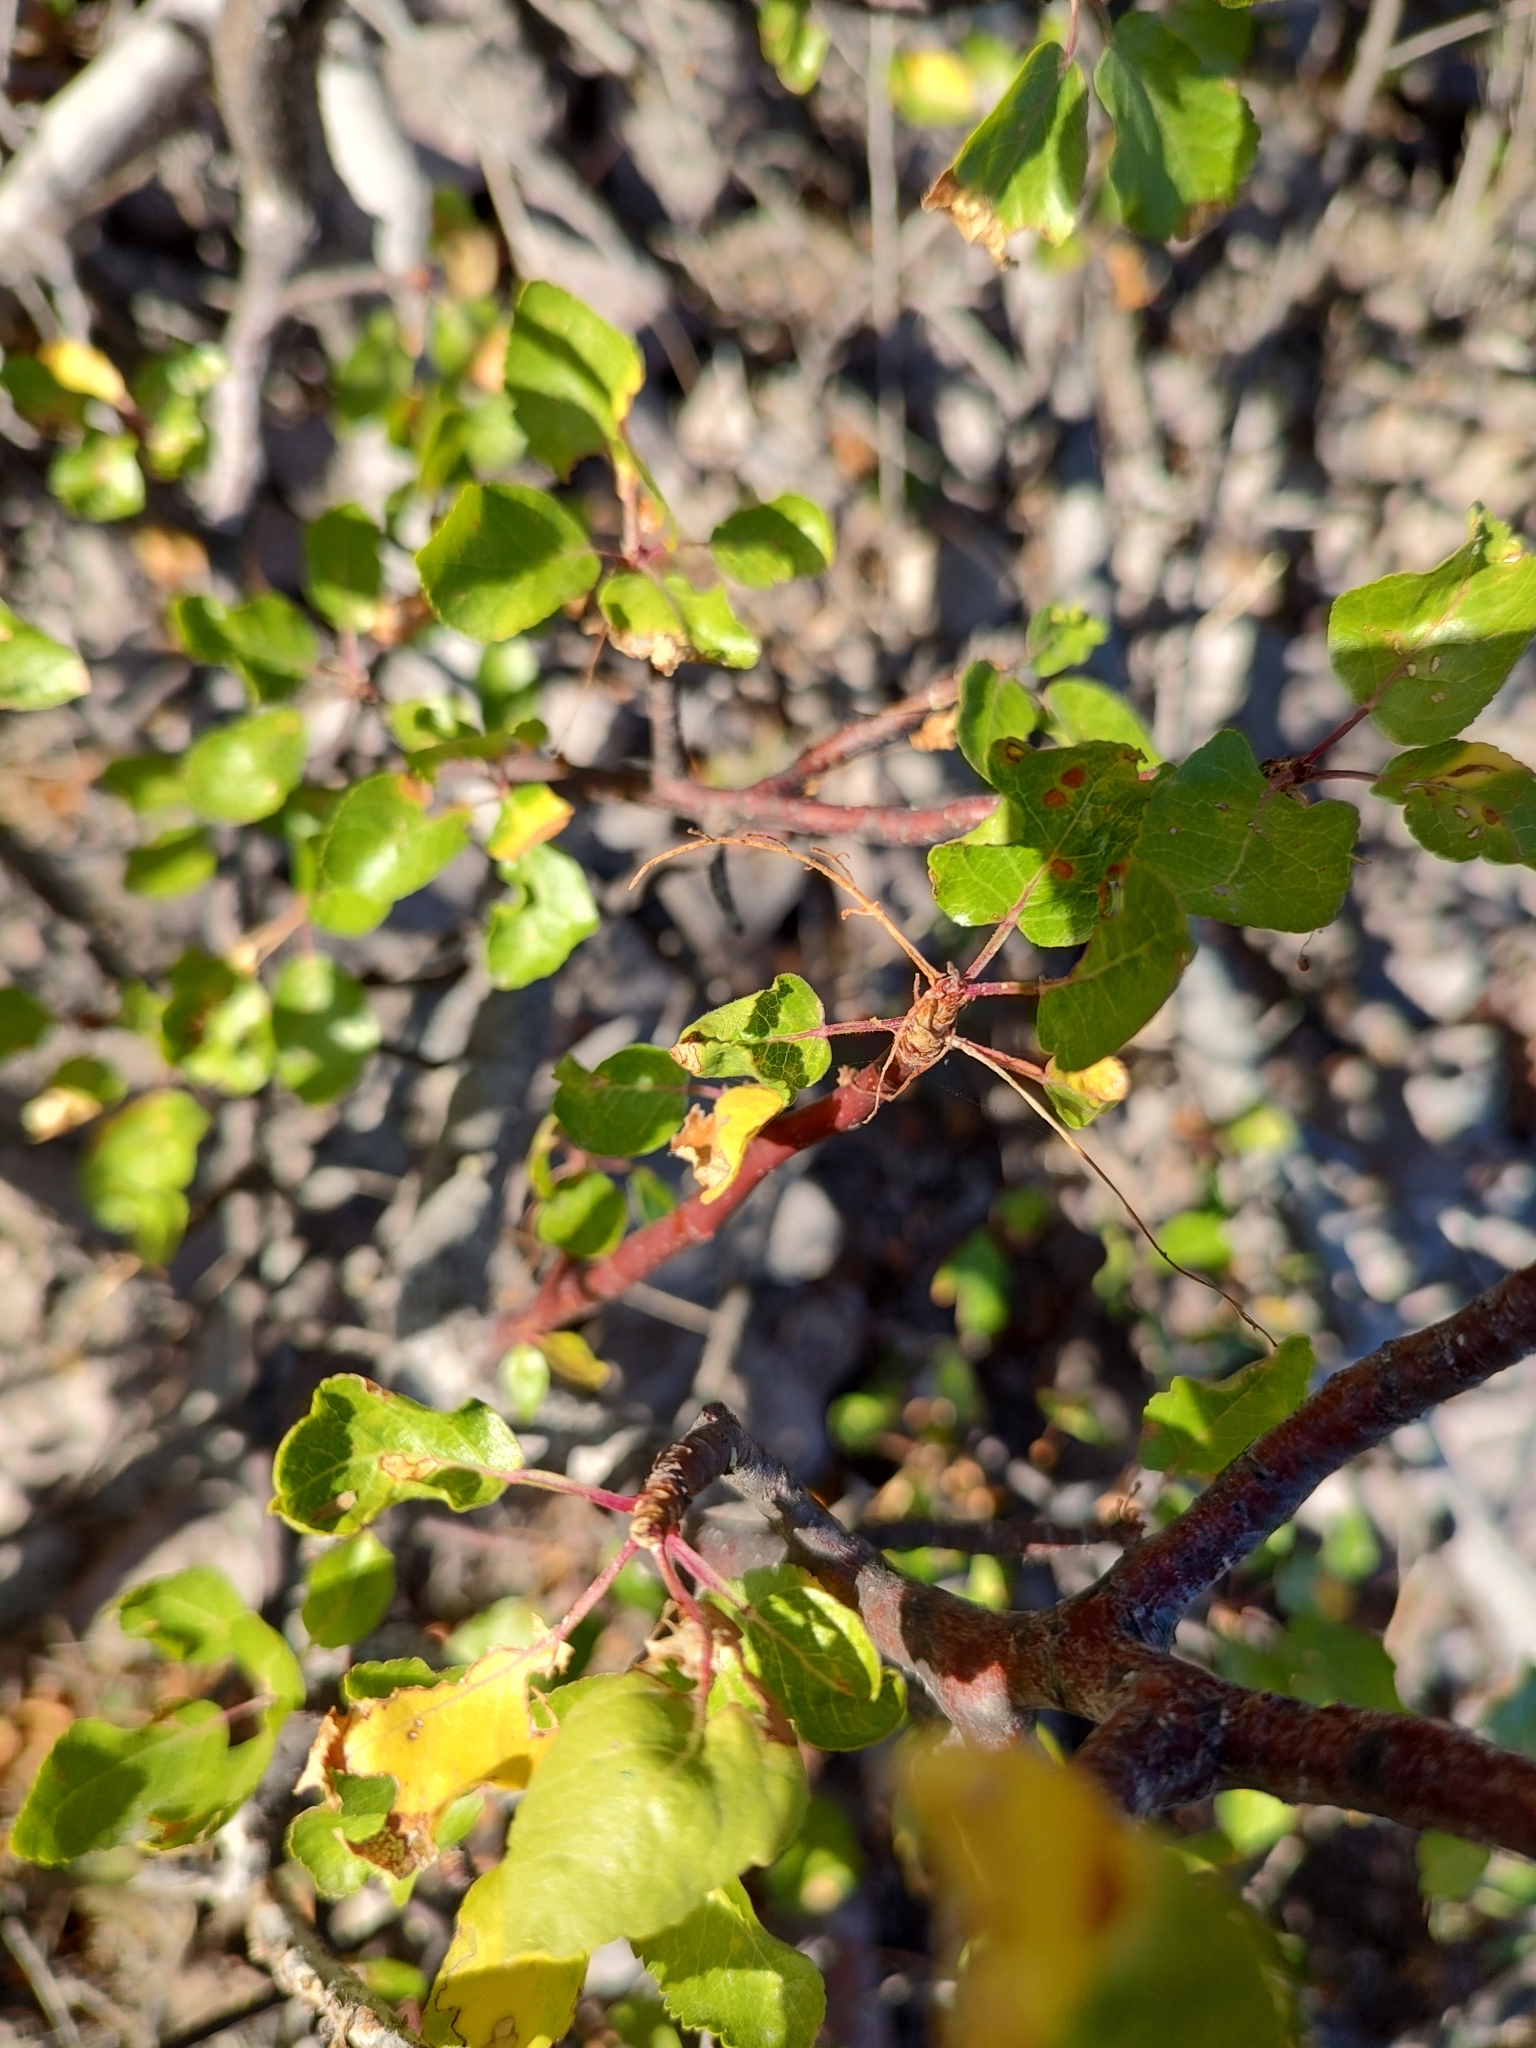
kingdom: Plantae
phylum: Tracheophyta
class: Magnoliopsida
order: Sapindales
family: Burseraceae
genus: Bursera
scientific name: Bursera epinnata
